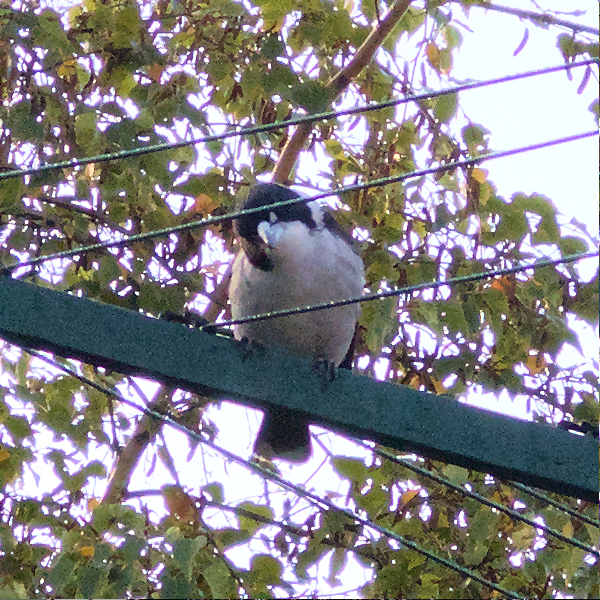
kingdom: Animalia
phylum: Chordata
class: Aves
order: Passeriformes
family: Cracticidae
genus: Cracticus
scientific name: Cracticus torquatus
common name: Grey butcherbird
